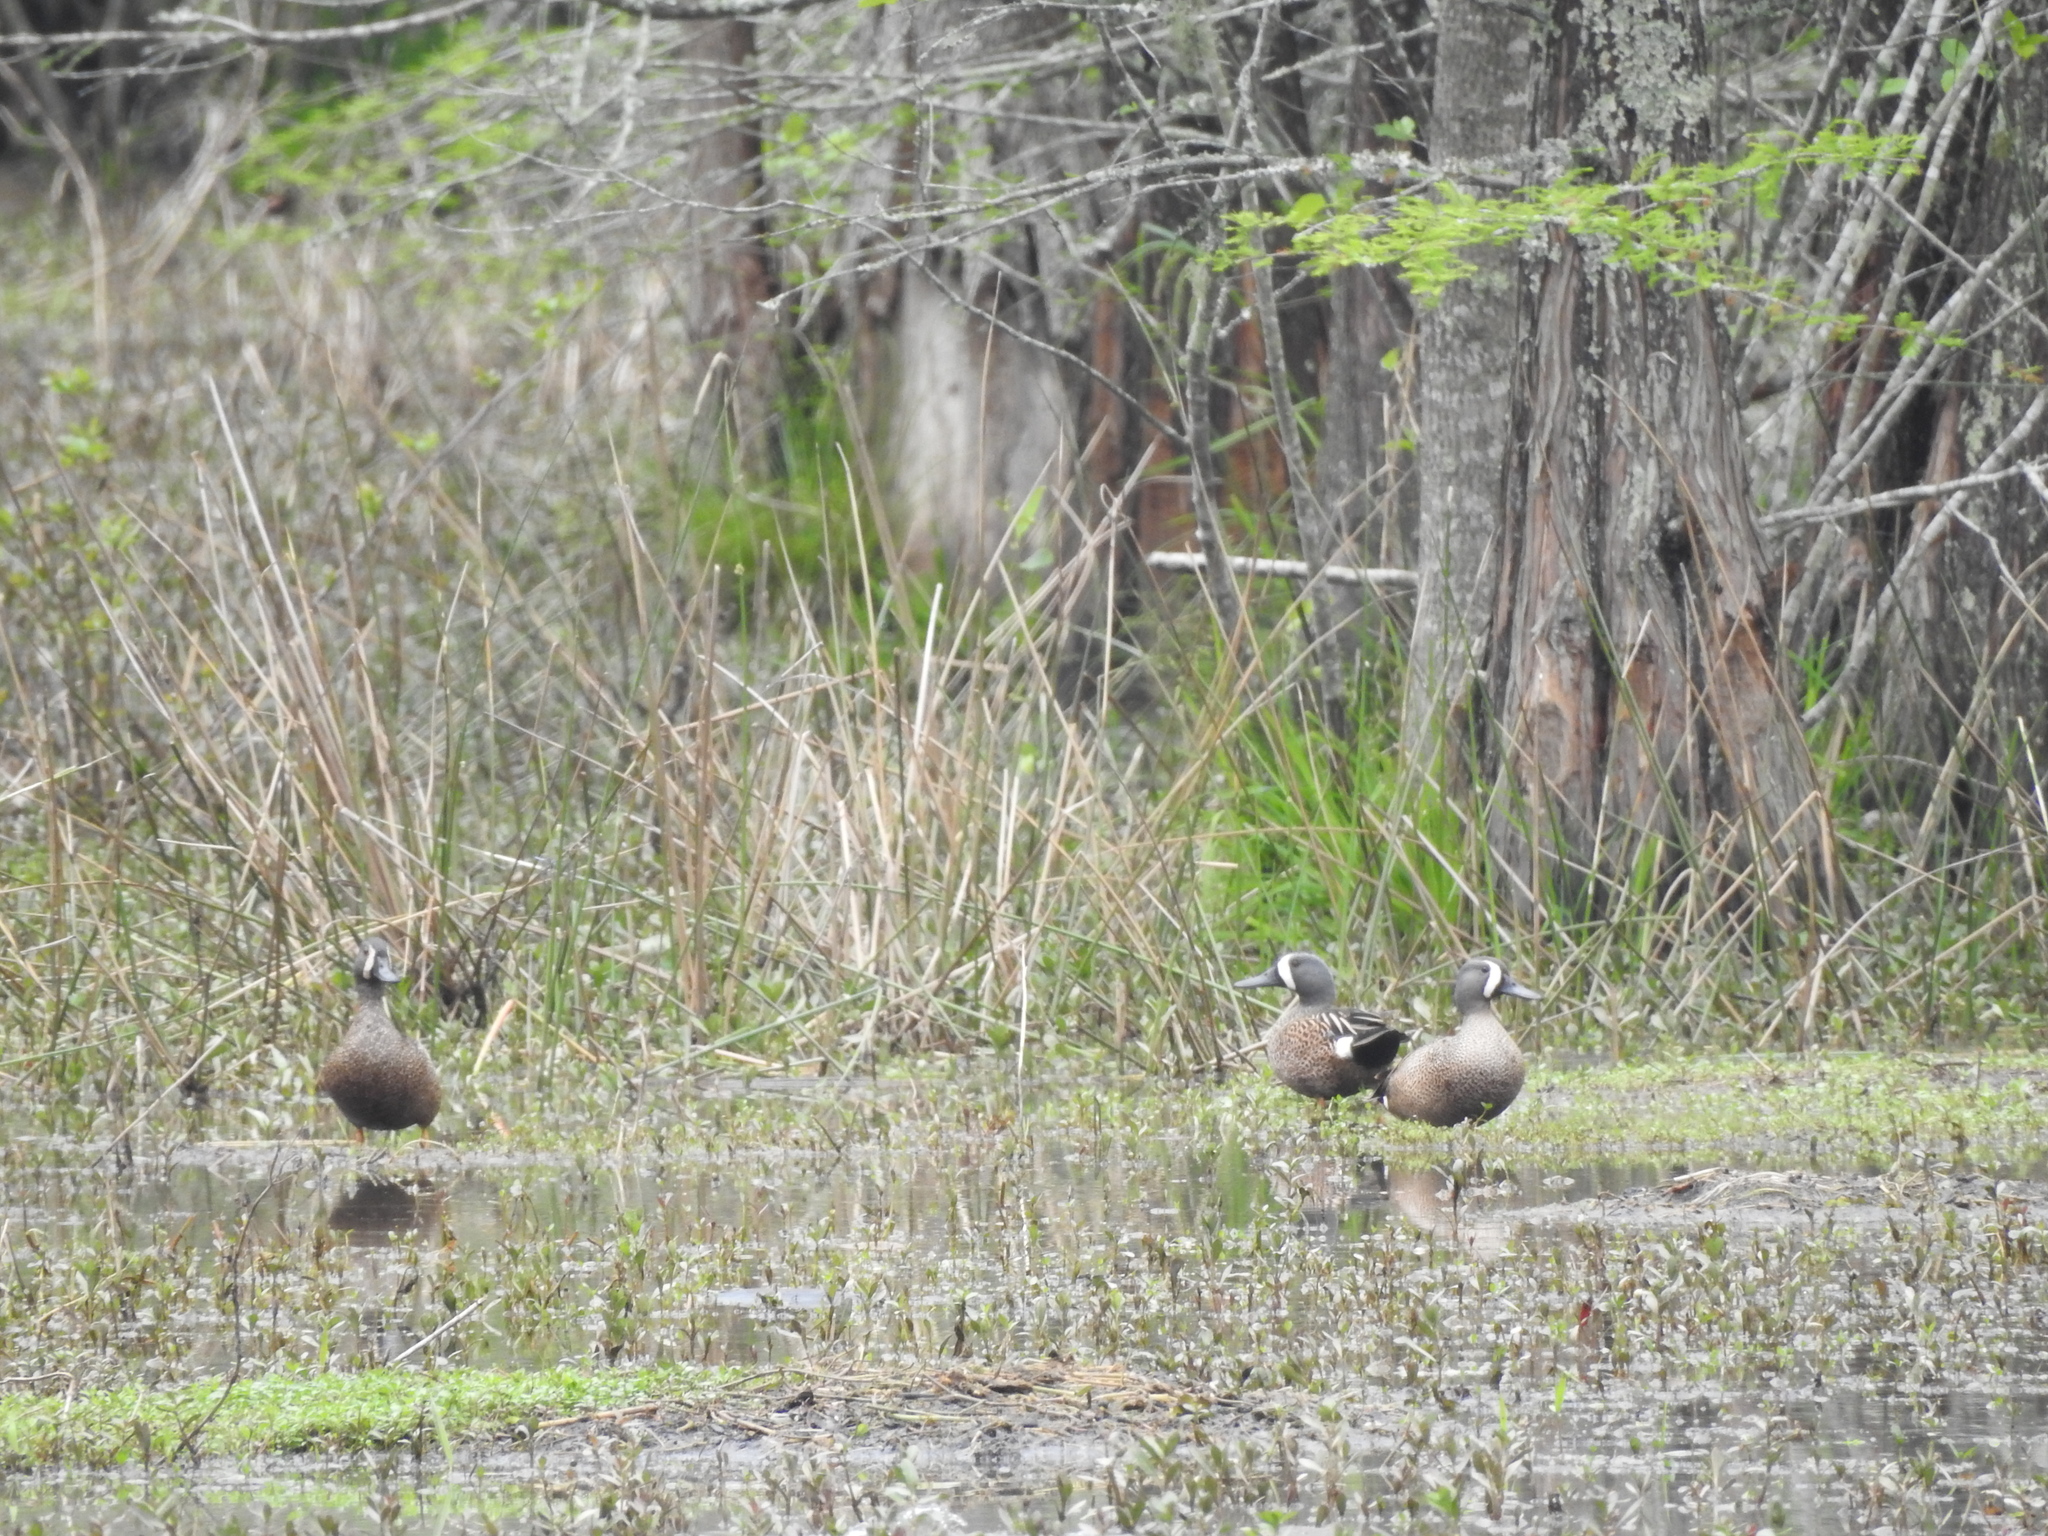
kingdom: Animalia
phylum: Chordata
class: Aves
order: Anseriformes
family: Anatidae
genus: Spatula
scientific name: Spatula discors
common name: Blue-winged teal
